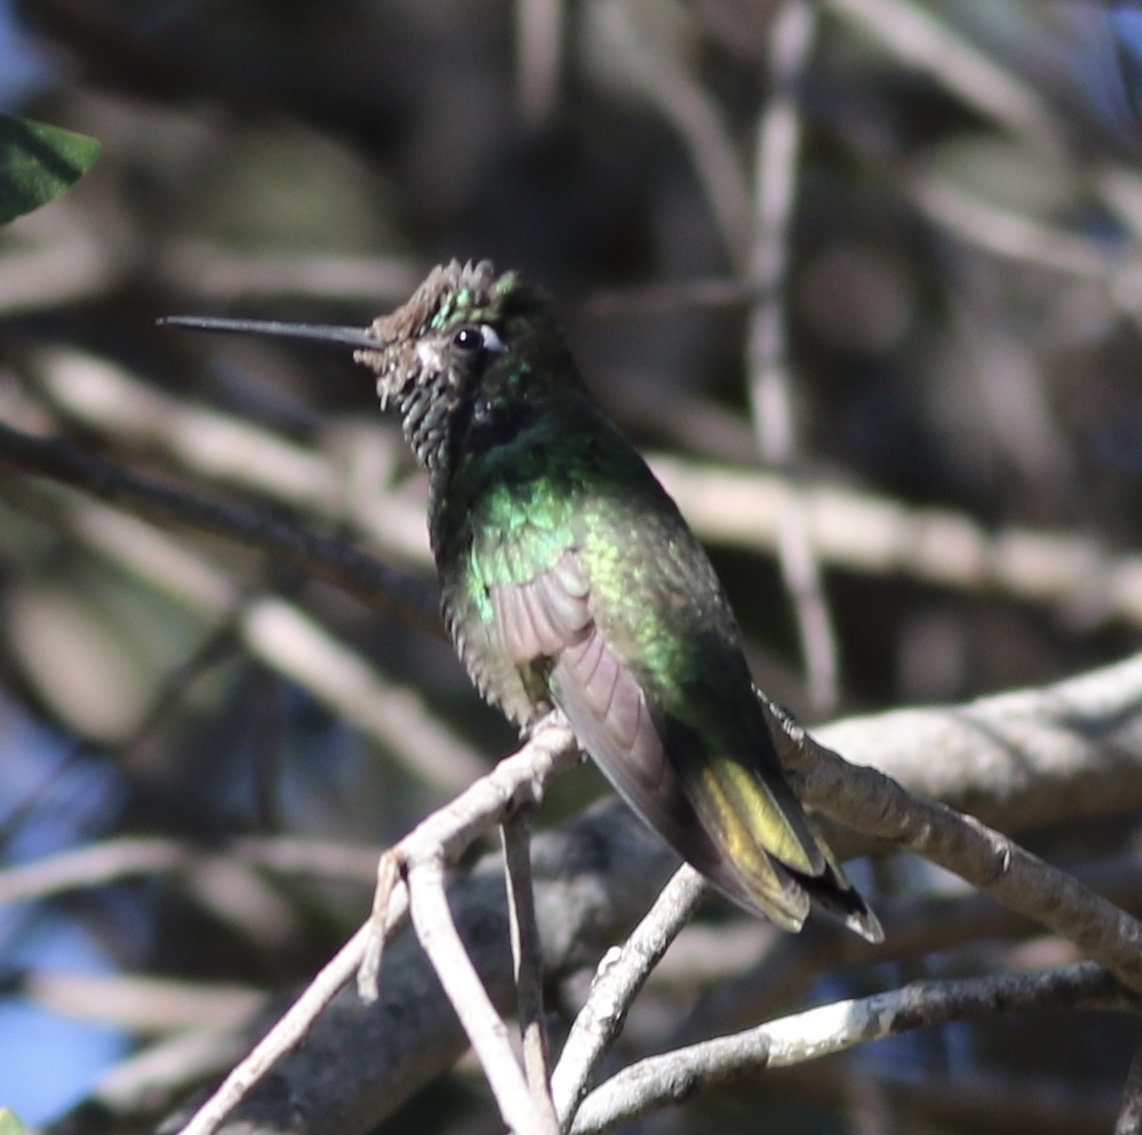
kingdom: Animalia
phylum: Chordata
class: Aves
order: Apodiformes
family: Trochilidae
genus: Eugenes
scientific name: Eugenes fulgens
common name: Magnificent hummingbird
